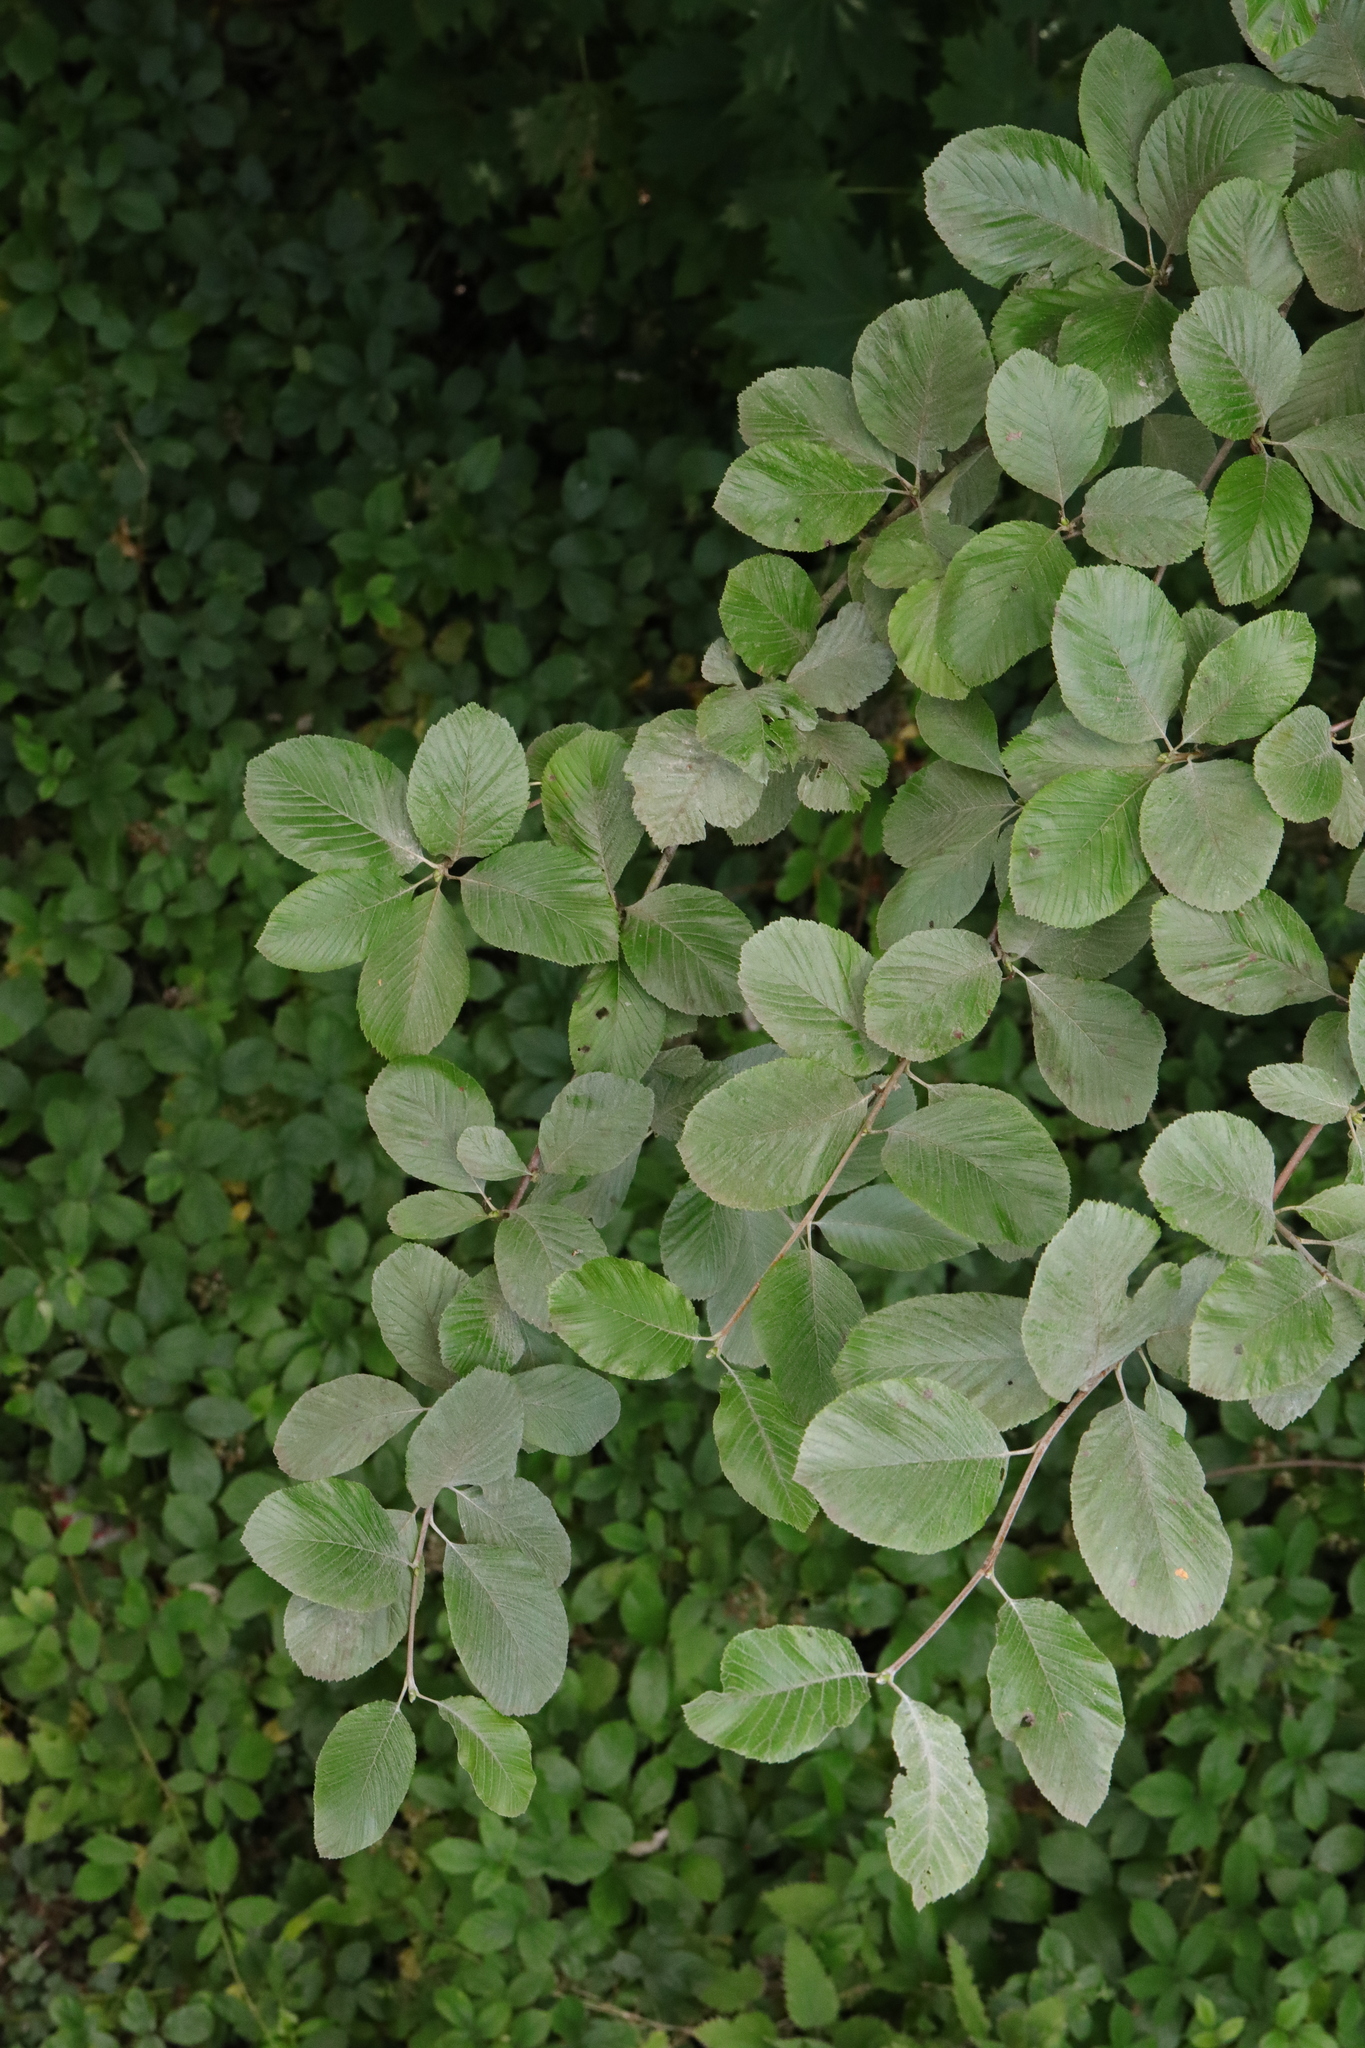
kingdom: Plantae
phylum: Tracheophyta
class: Magnoliopsida
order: Rosales
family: Rosaceae
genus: Aria
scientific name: Aria edulis
